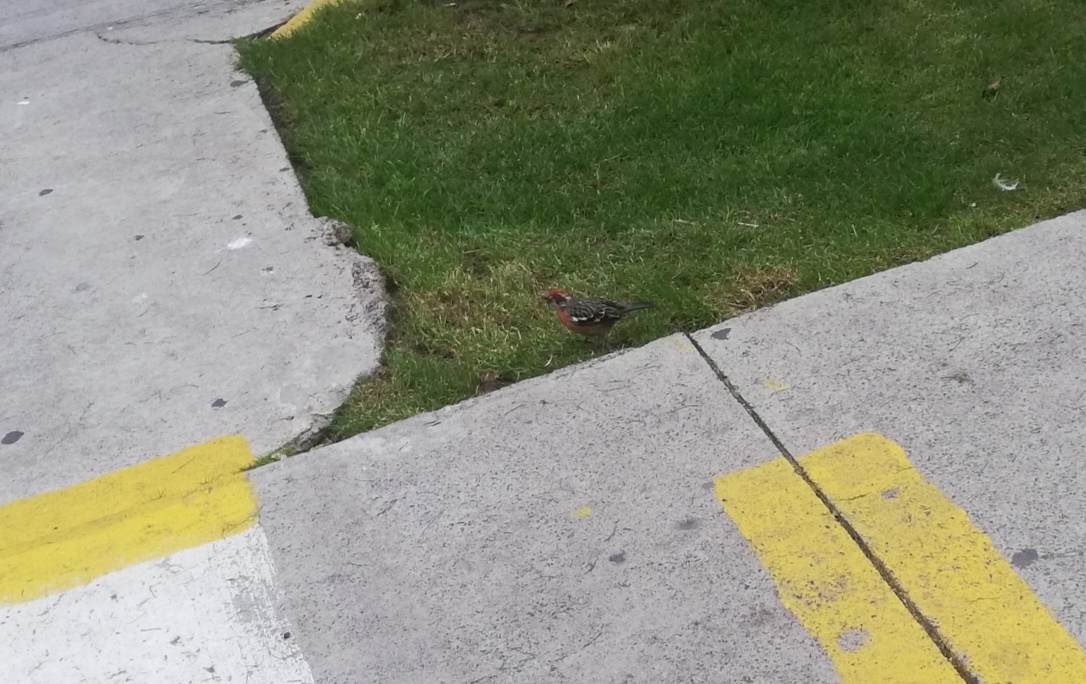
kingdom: Animalia
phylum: Chordata
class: Aves
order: Passeriformes
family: Cotingidae
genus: Phytotoma
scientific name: Phytotoma rara
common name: Rufous-tailed plantcutter
